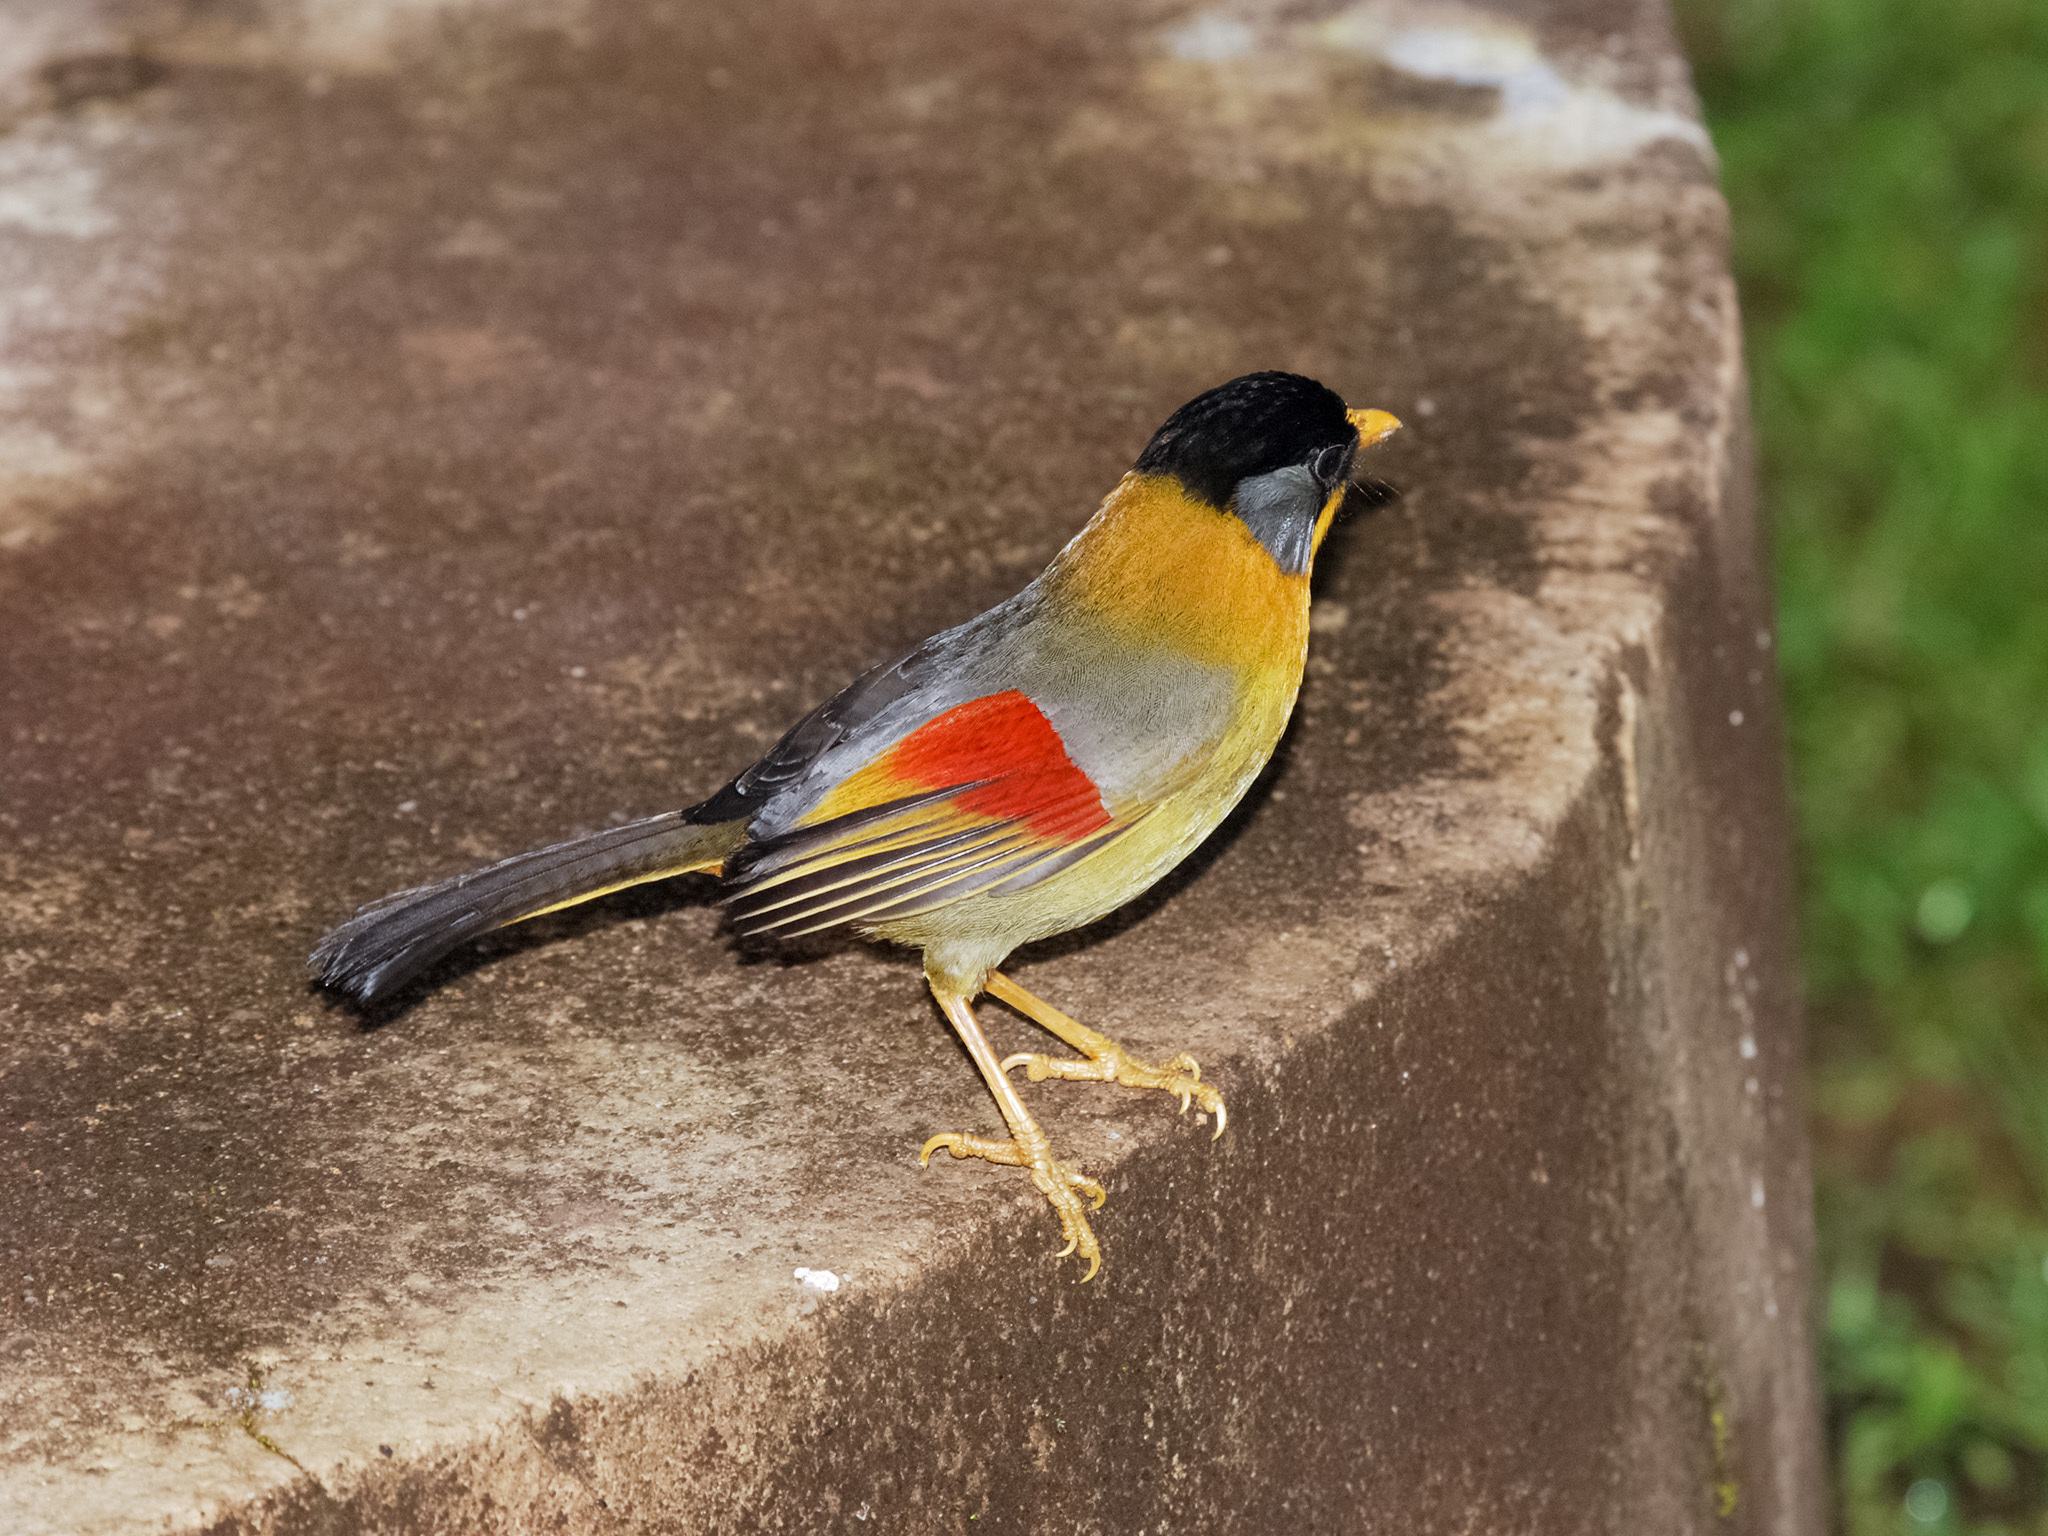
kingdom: Animalia
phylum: Chordata
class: Aves
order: Passeriformes
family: Leiothrichidae
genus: Leiothrix
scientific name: Leiothrix argentauris
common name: Silver-eared mesia
